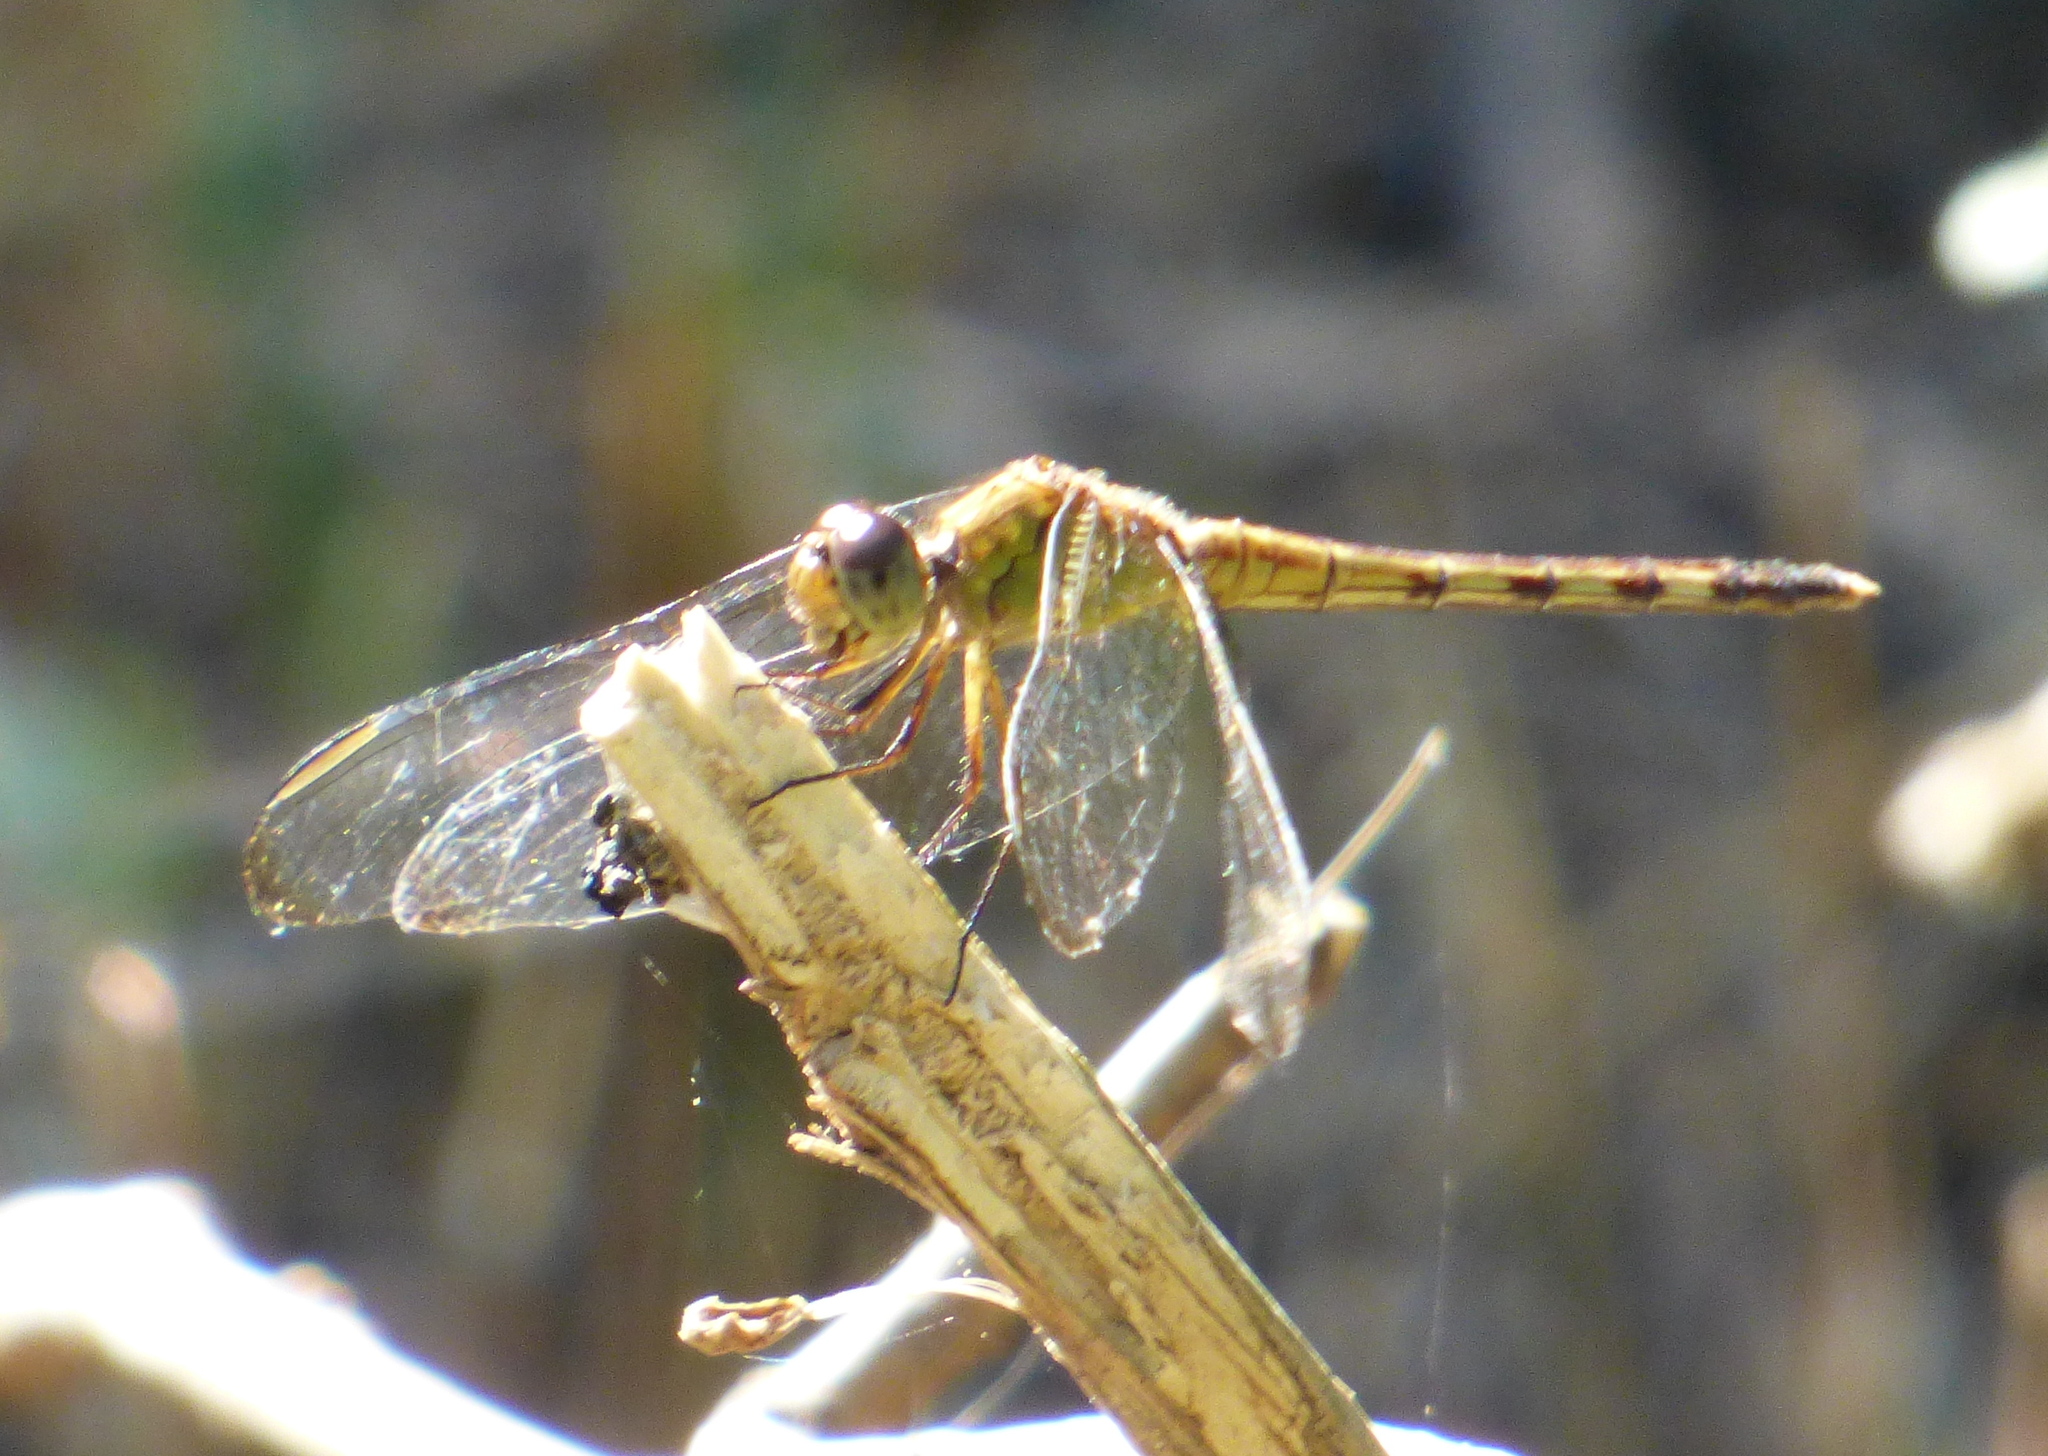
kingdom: Animalia
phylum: Arthropoda
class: Insecta
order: Odonata
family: Libellulidae
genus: Erythrodiplax
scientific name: Erythrodiplax umbrata
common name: Band-winged dragonlet
